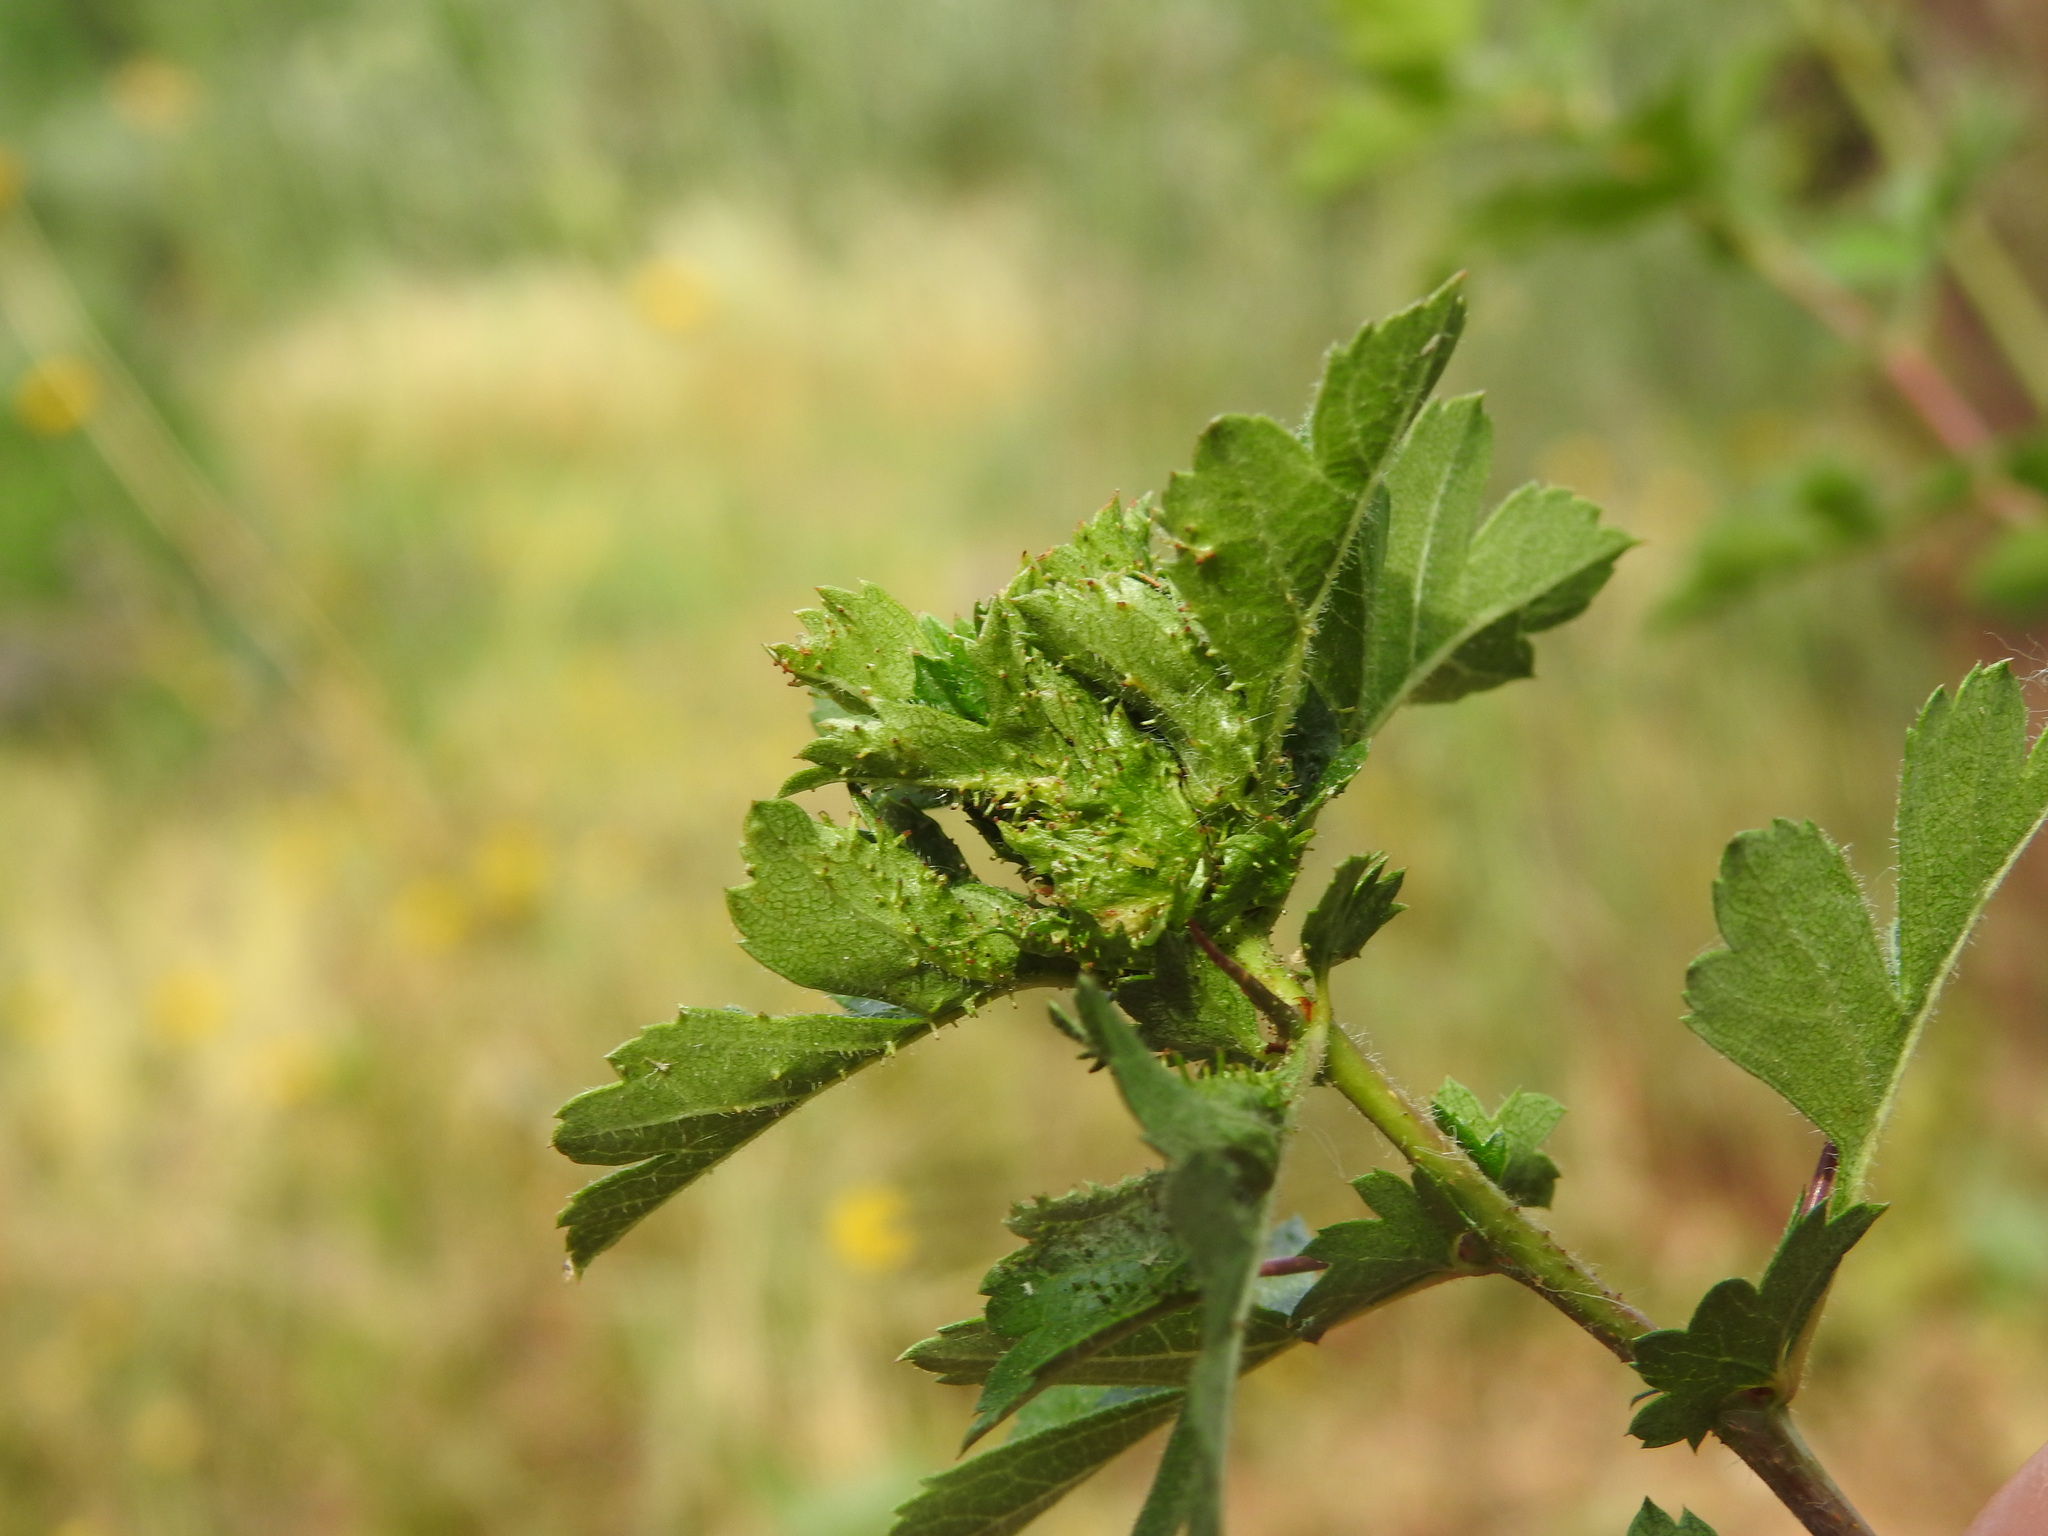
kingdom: Animalia
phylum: Arthropoda
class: Insecta
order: Diptera
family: Cecidomyiidae
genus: Dasineura
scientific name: Dasineura crataegi
